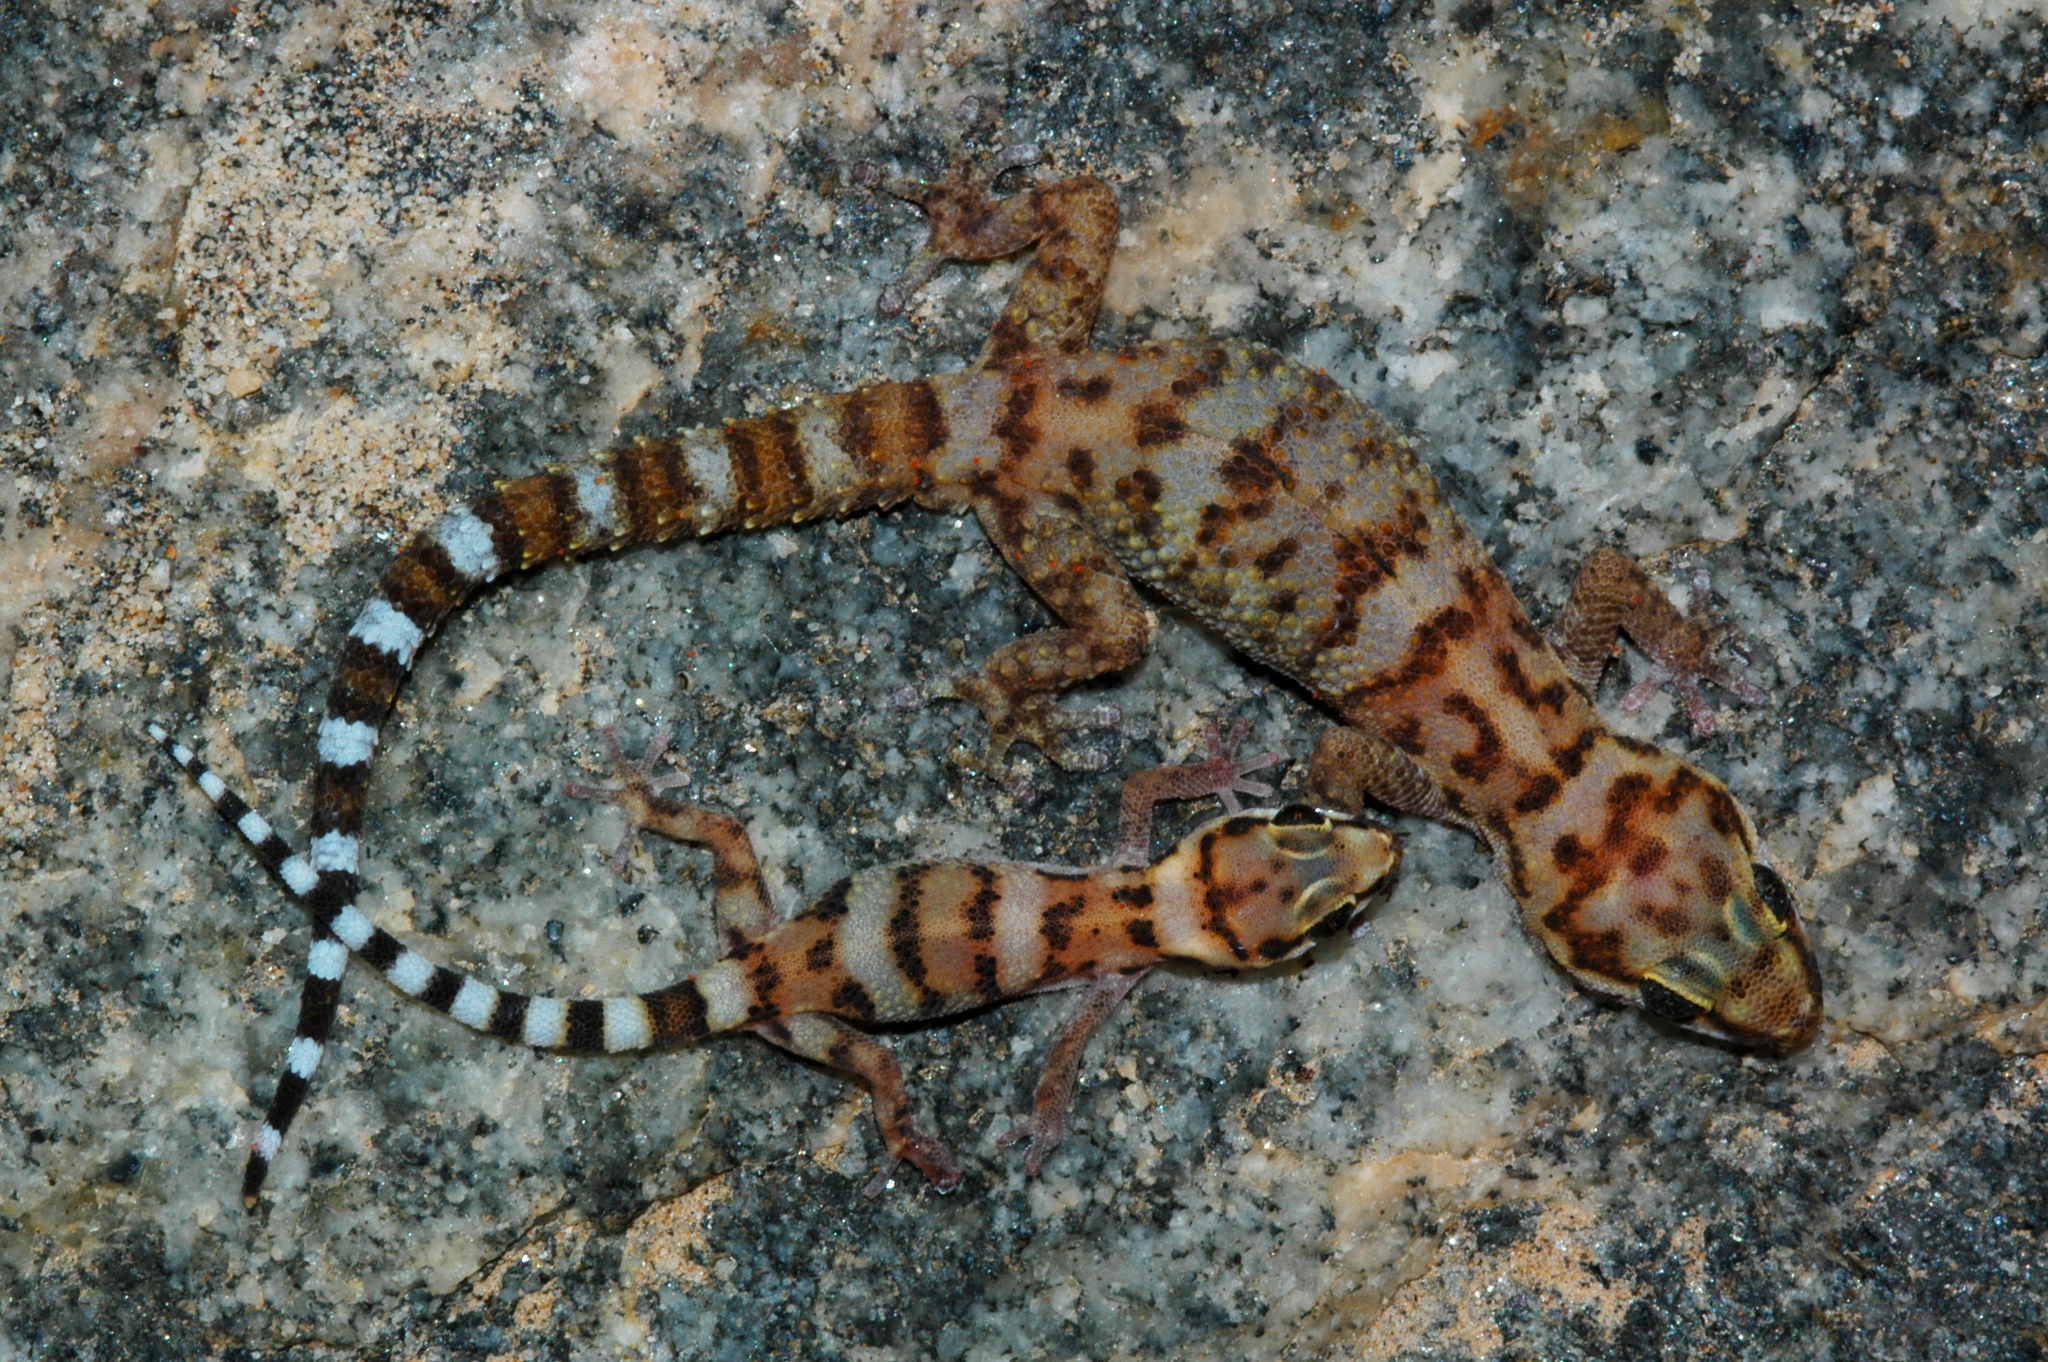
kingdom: Animalia
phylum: Chordata
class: Squamata
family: Gekkonidae
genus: Pachydactylus
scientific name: Pachydactylus weberi
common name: Weber's gecko
